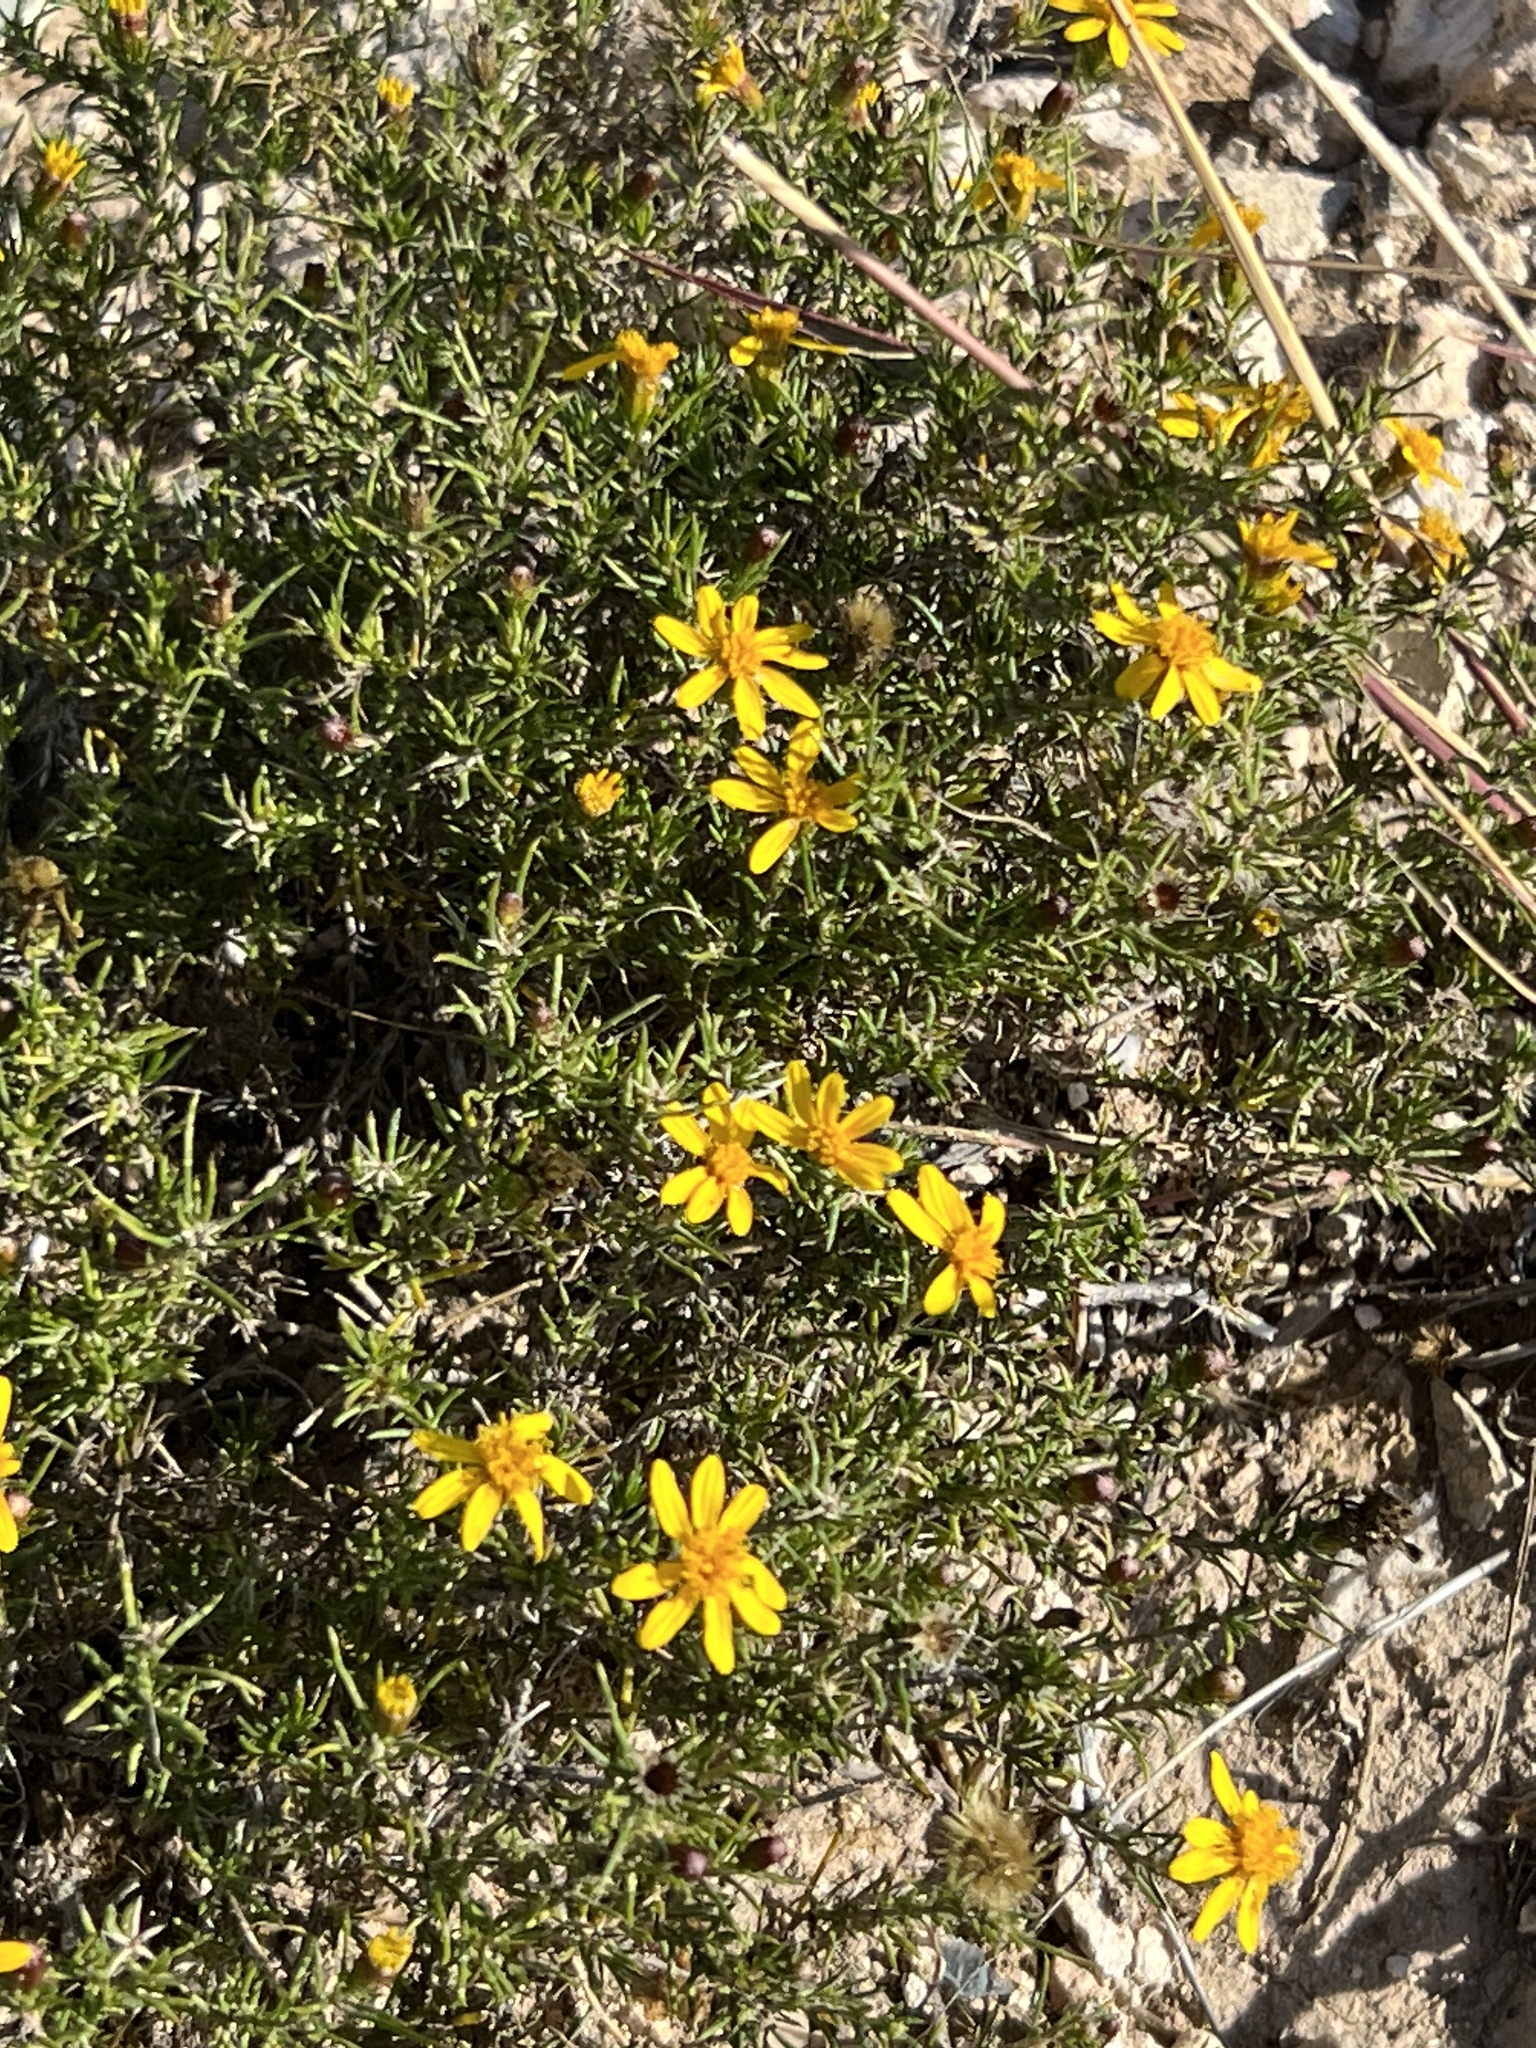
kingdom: Plantae
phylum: Tracheophyta
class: Magnoliopsida
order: Asterales
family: Asteraceae
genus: Thymophylla
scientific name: Thymophylla acerosa
